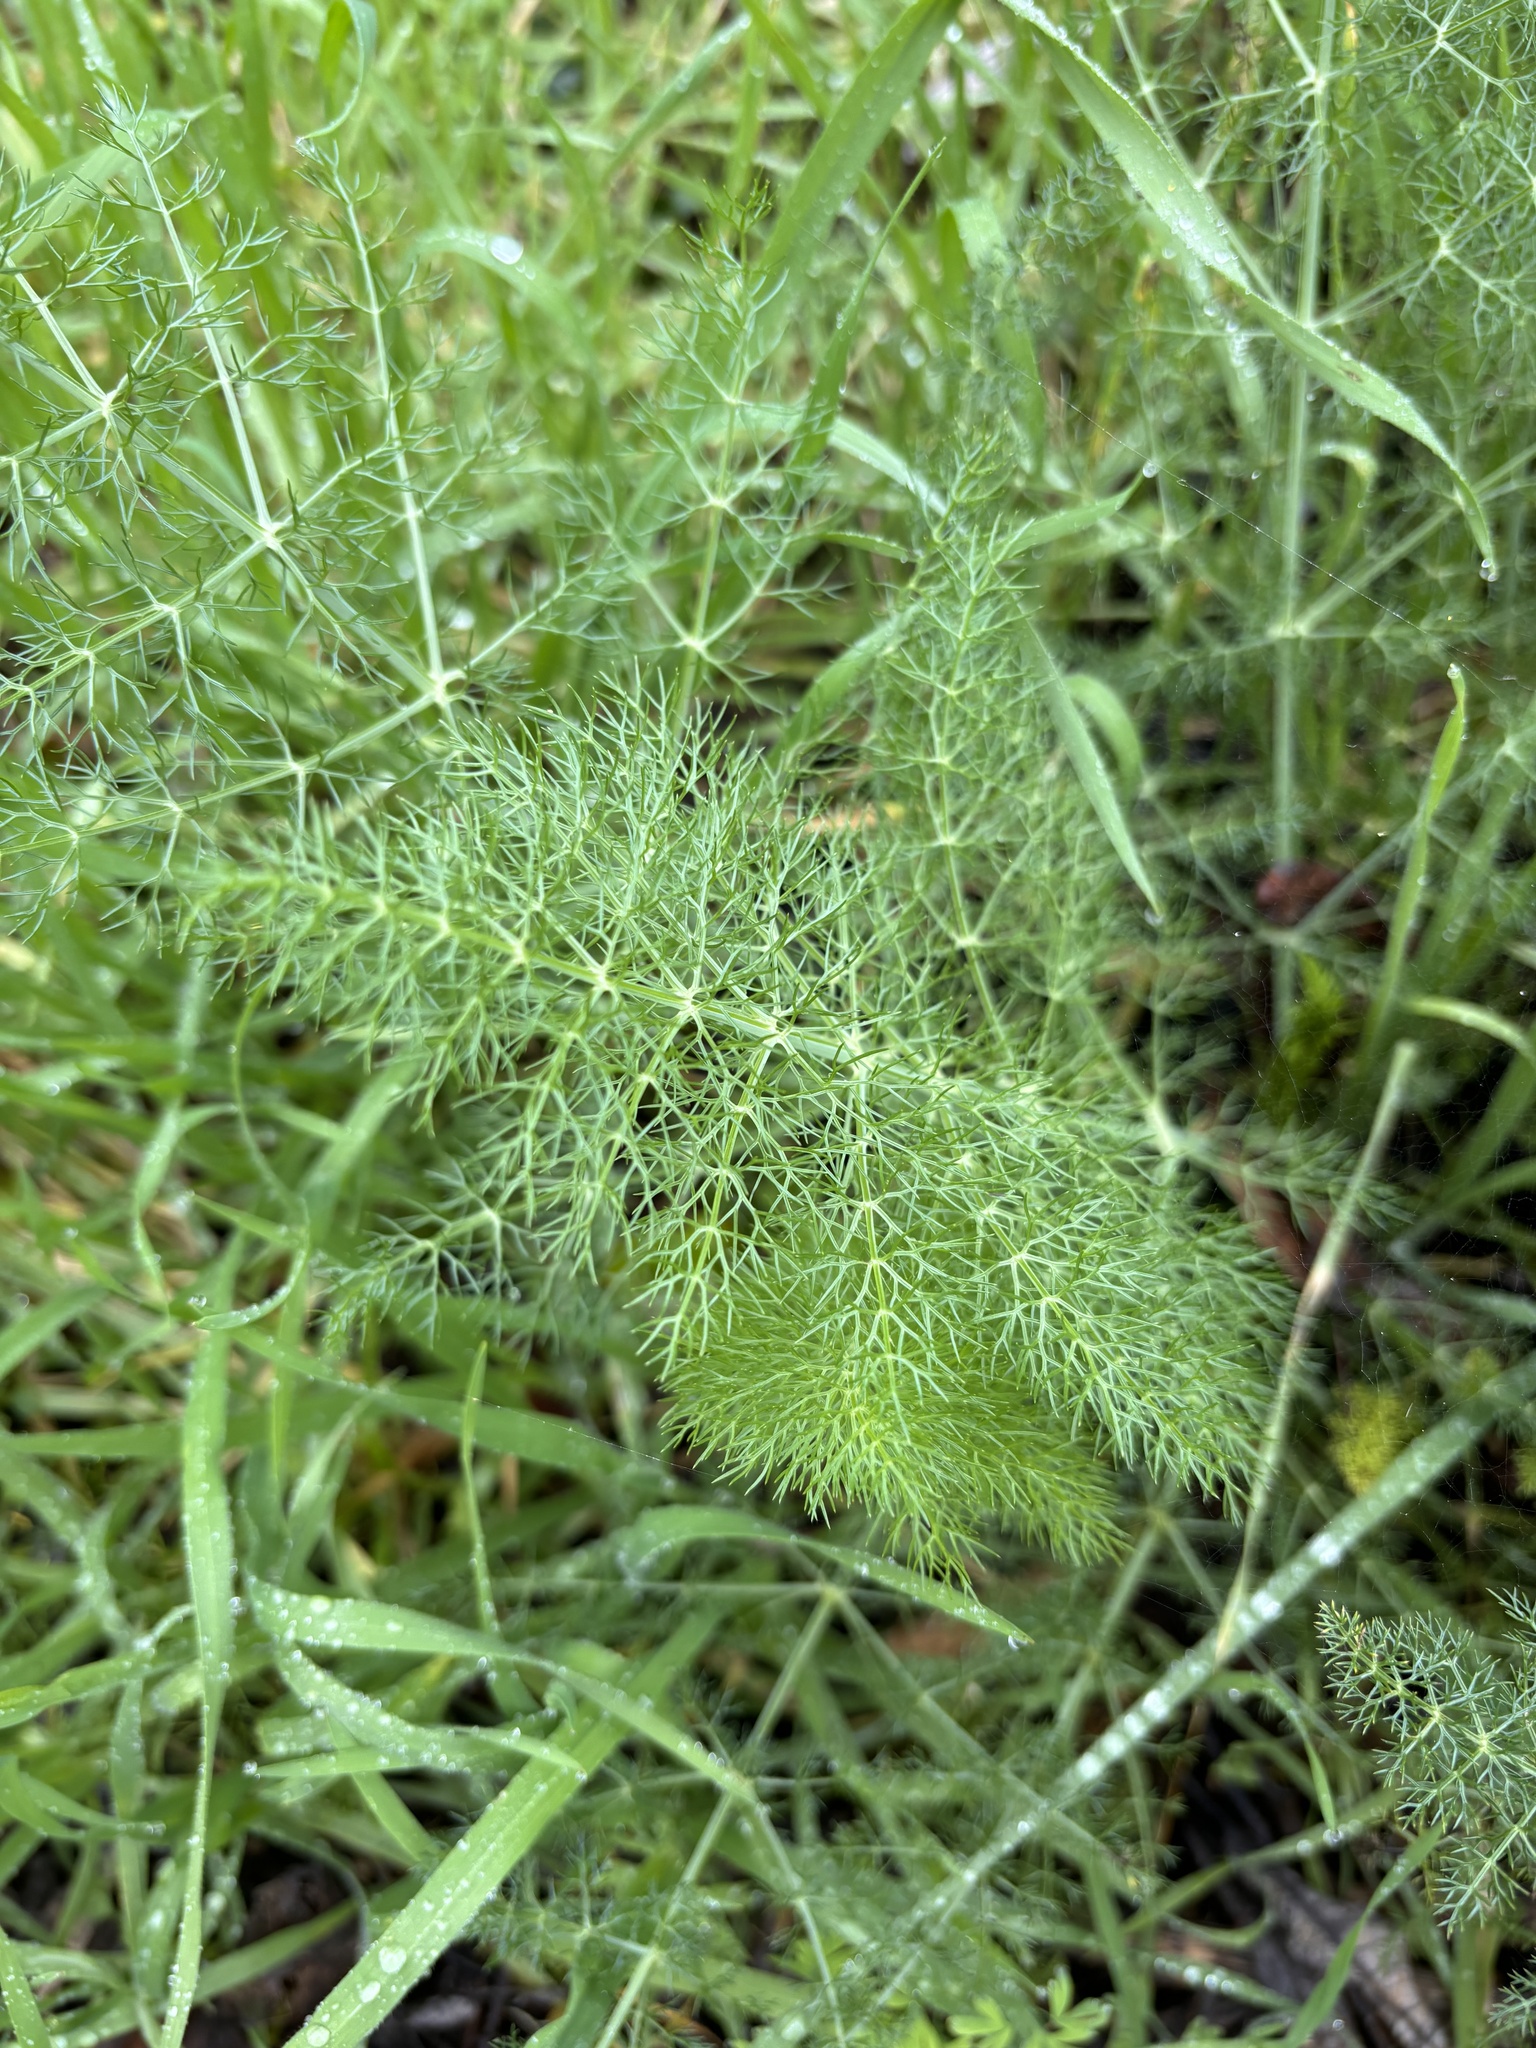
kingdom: Plantae
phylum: Tracheophyta
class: Magnoliopsida
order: Apiales
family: Apiaceae
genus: Foeniculum
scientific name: Foeniculum vulgare
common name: Fennel
